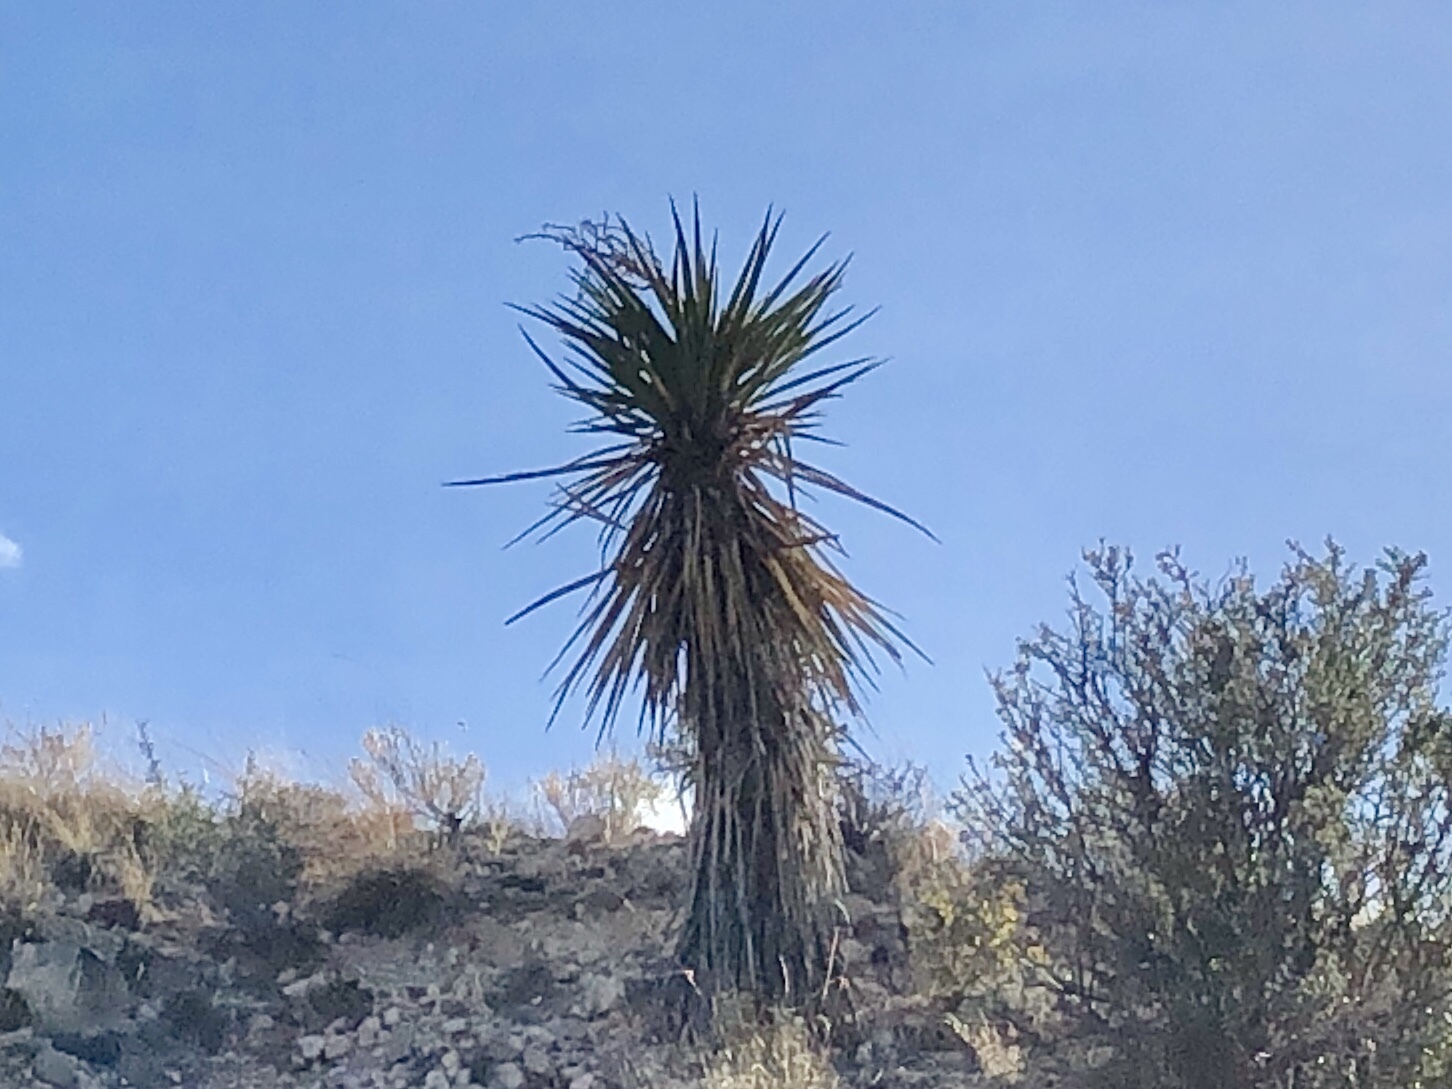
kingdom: Plantae
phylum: Tracheophyta
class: Liliopsida
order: Asparagales
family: Asparagaceae
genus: Yucca
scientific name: Yucca elata
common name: Palmella
